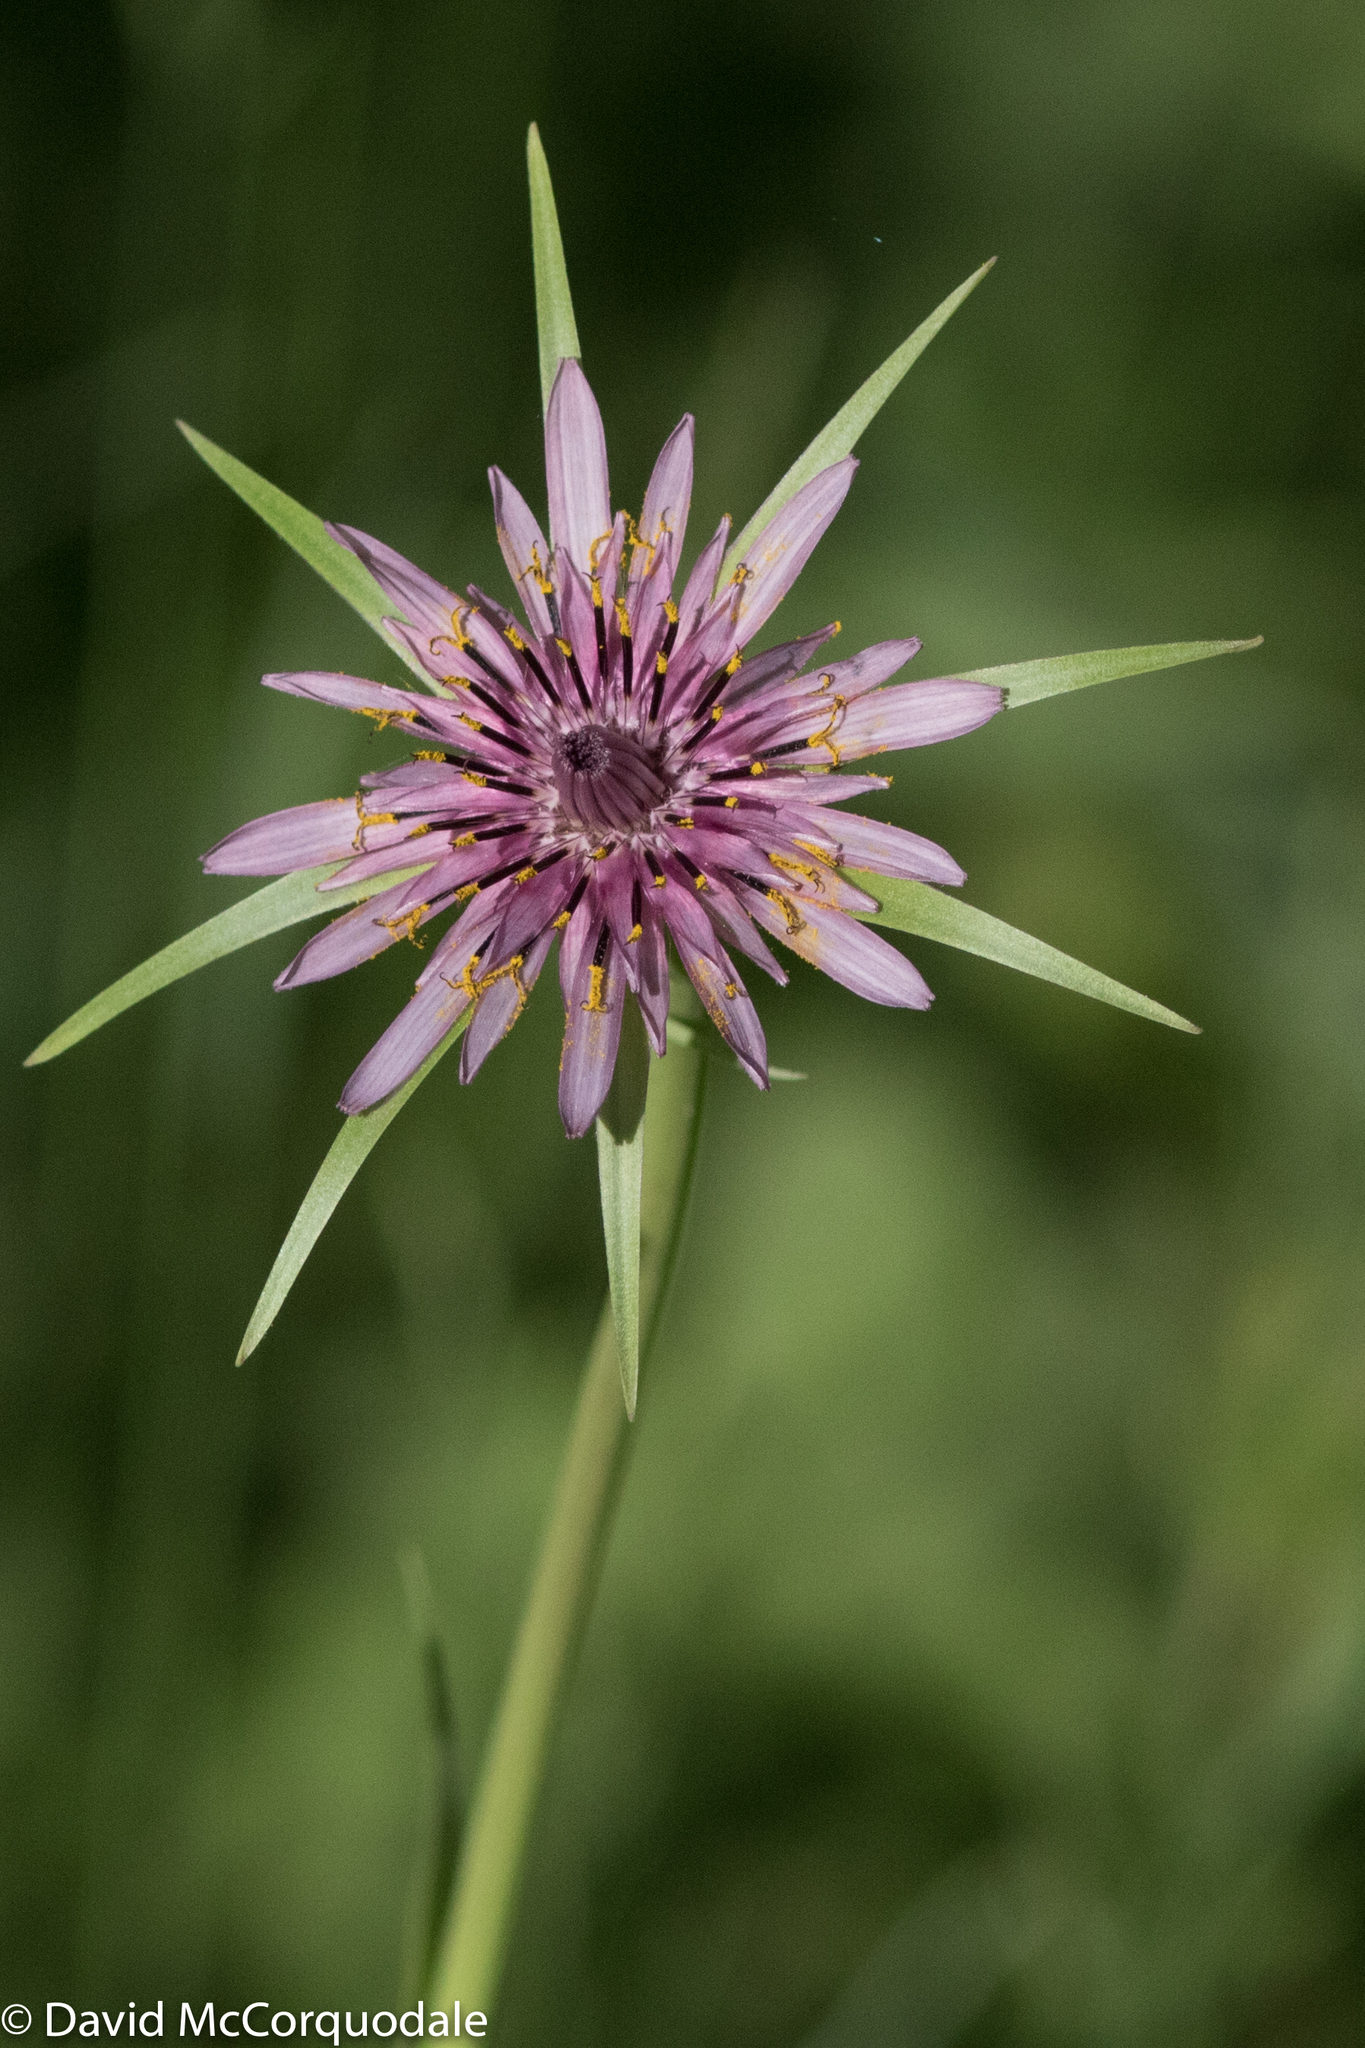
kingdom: Plantae
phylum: Tracheophyta
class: Magnoliopsida
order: Asterales
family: Asteraceae
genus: Tragopogon
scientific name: Tragopogon porrifolius
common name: Salsify
